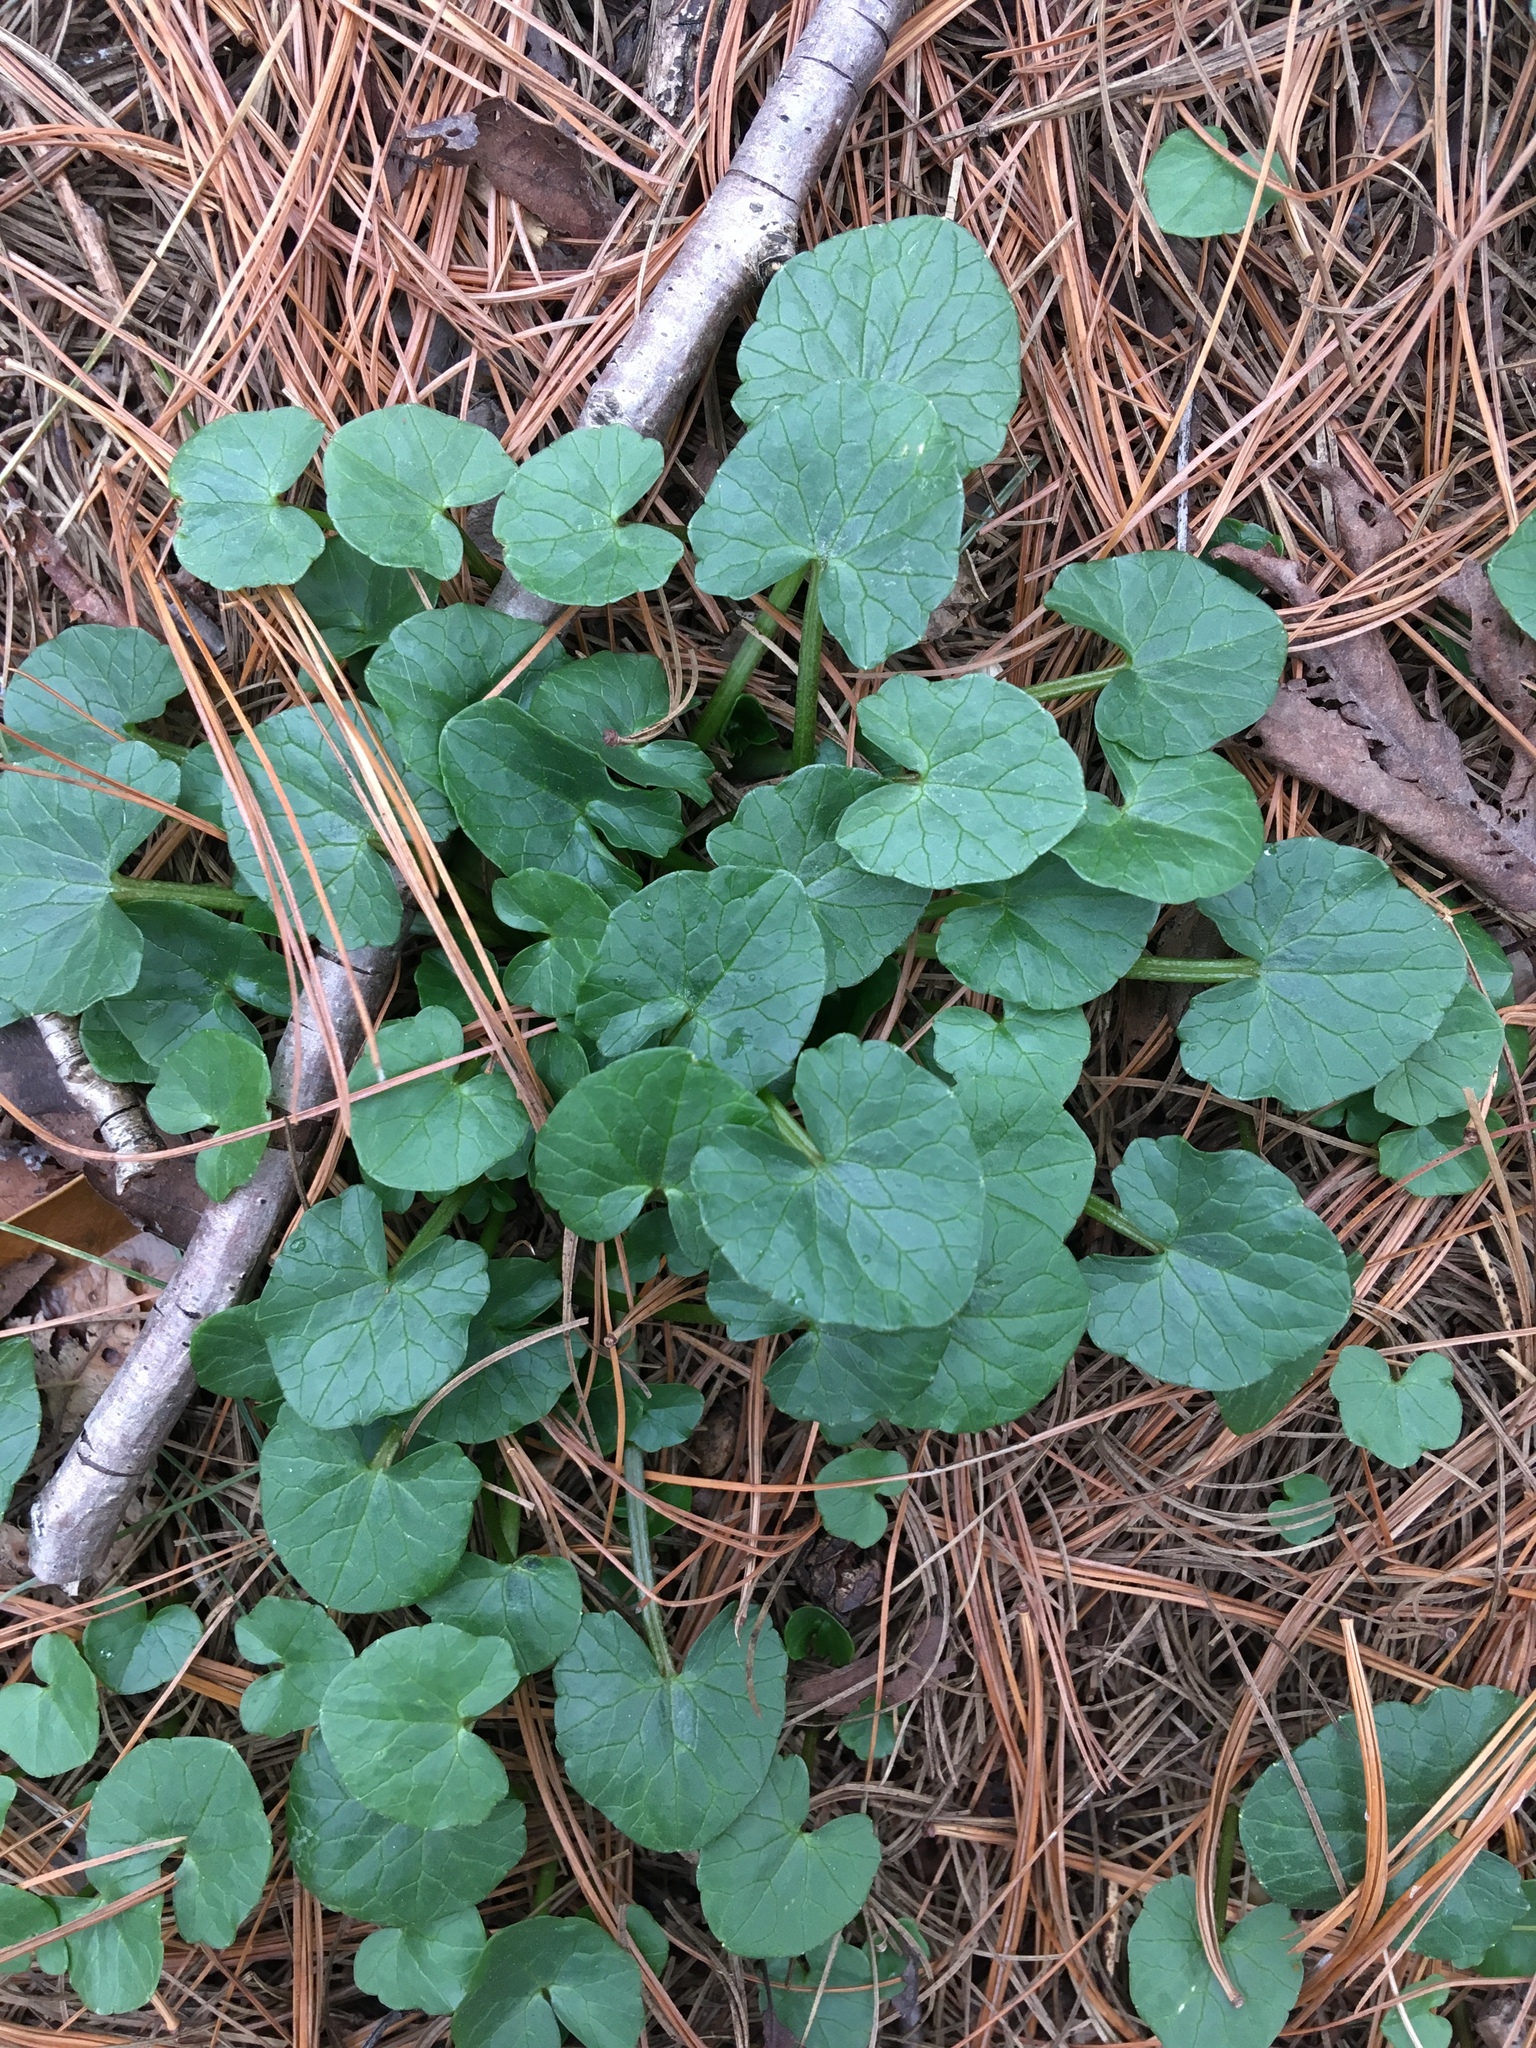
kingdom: Plantae
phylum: Tracheophyta
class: Magnoliopsida
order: Ranunculales
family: Ranunculaceae
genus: Ficaria
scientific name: Ficaria verna
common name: Lesser celandine
